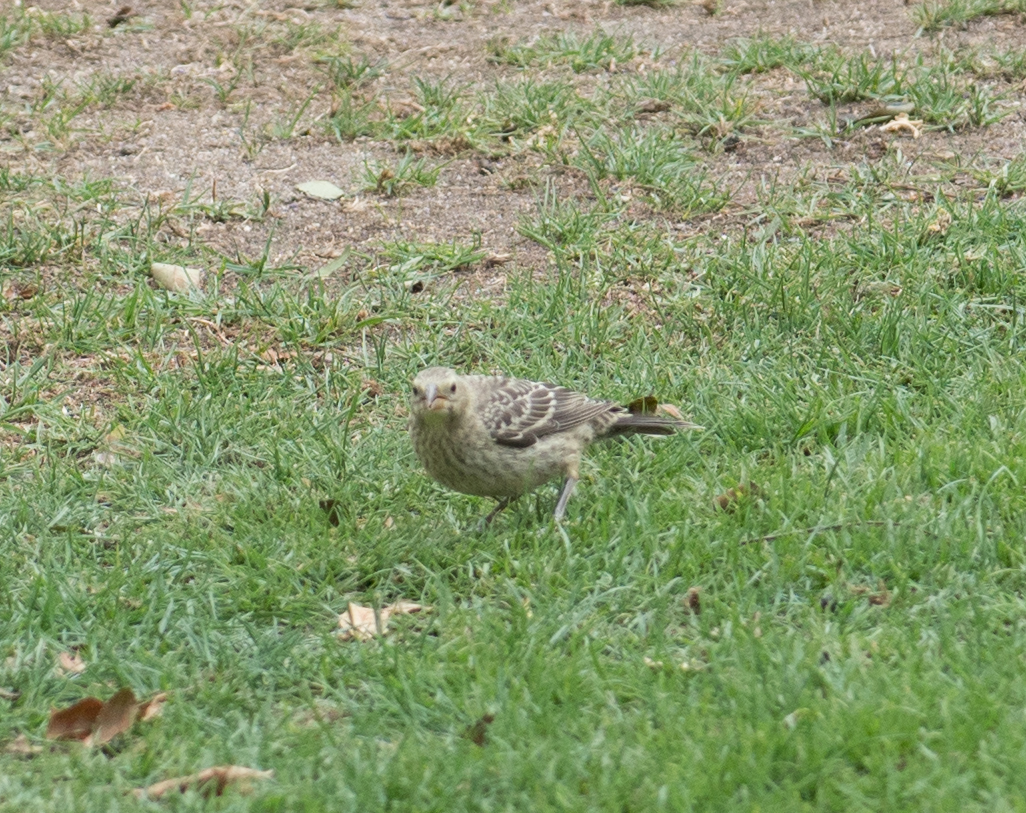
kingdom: Animalia
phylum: Chordata
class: Aves
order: Passeriformes
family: Icteridae
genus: Molothrus
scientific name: Molothrus ater
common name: Brown-headed cowbird
